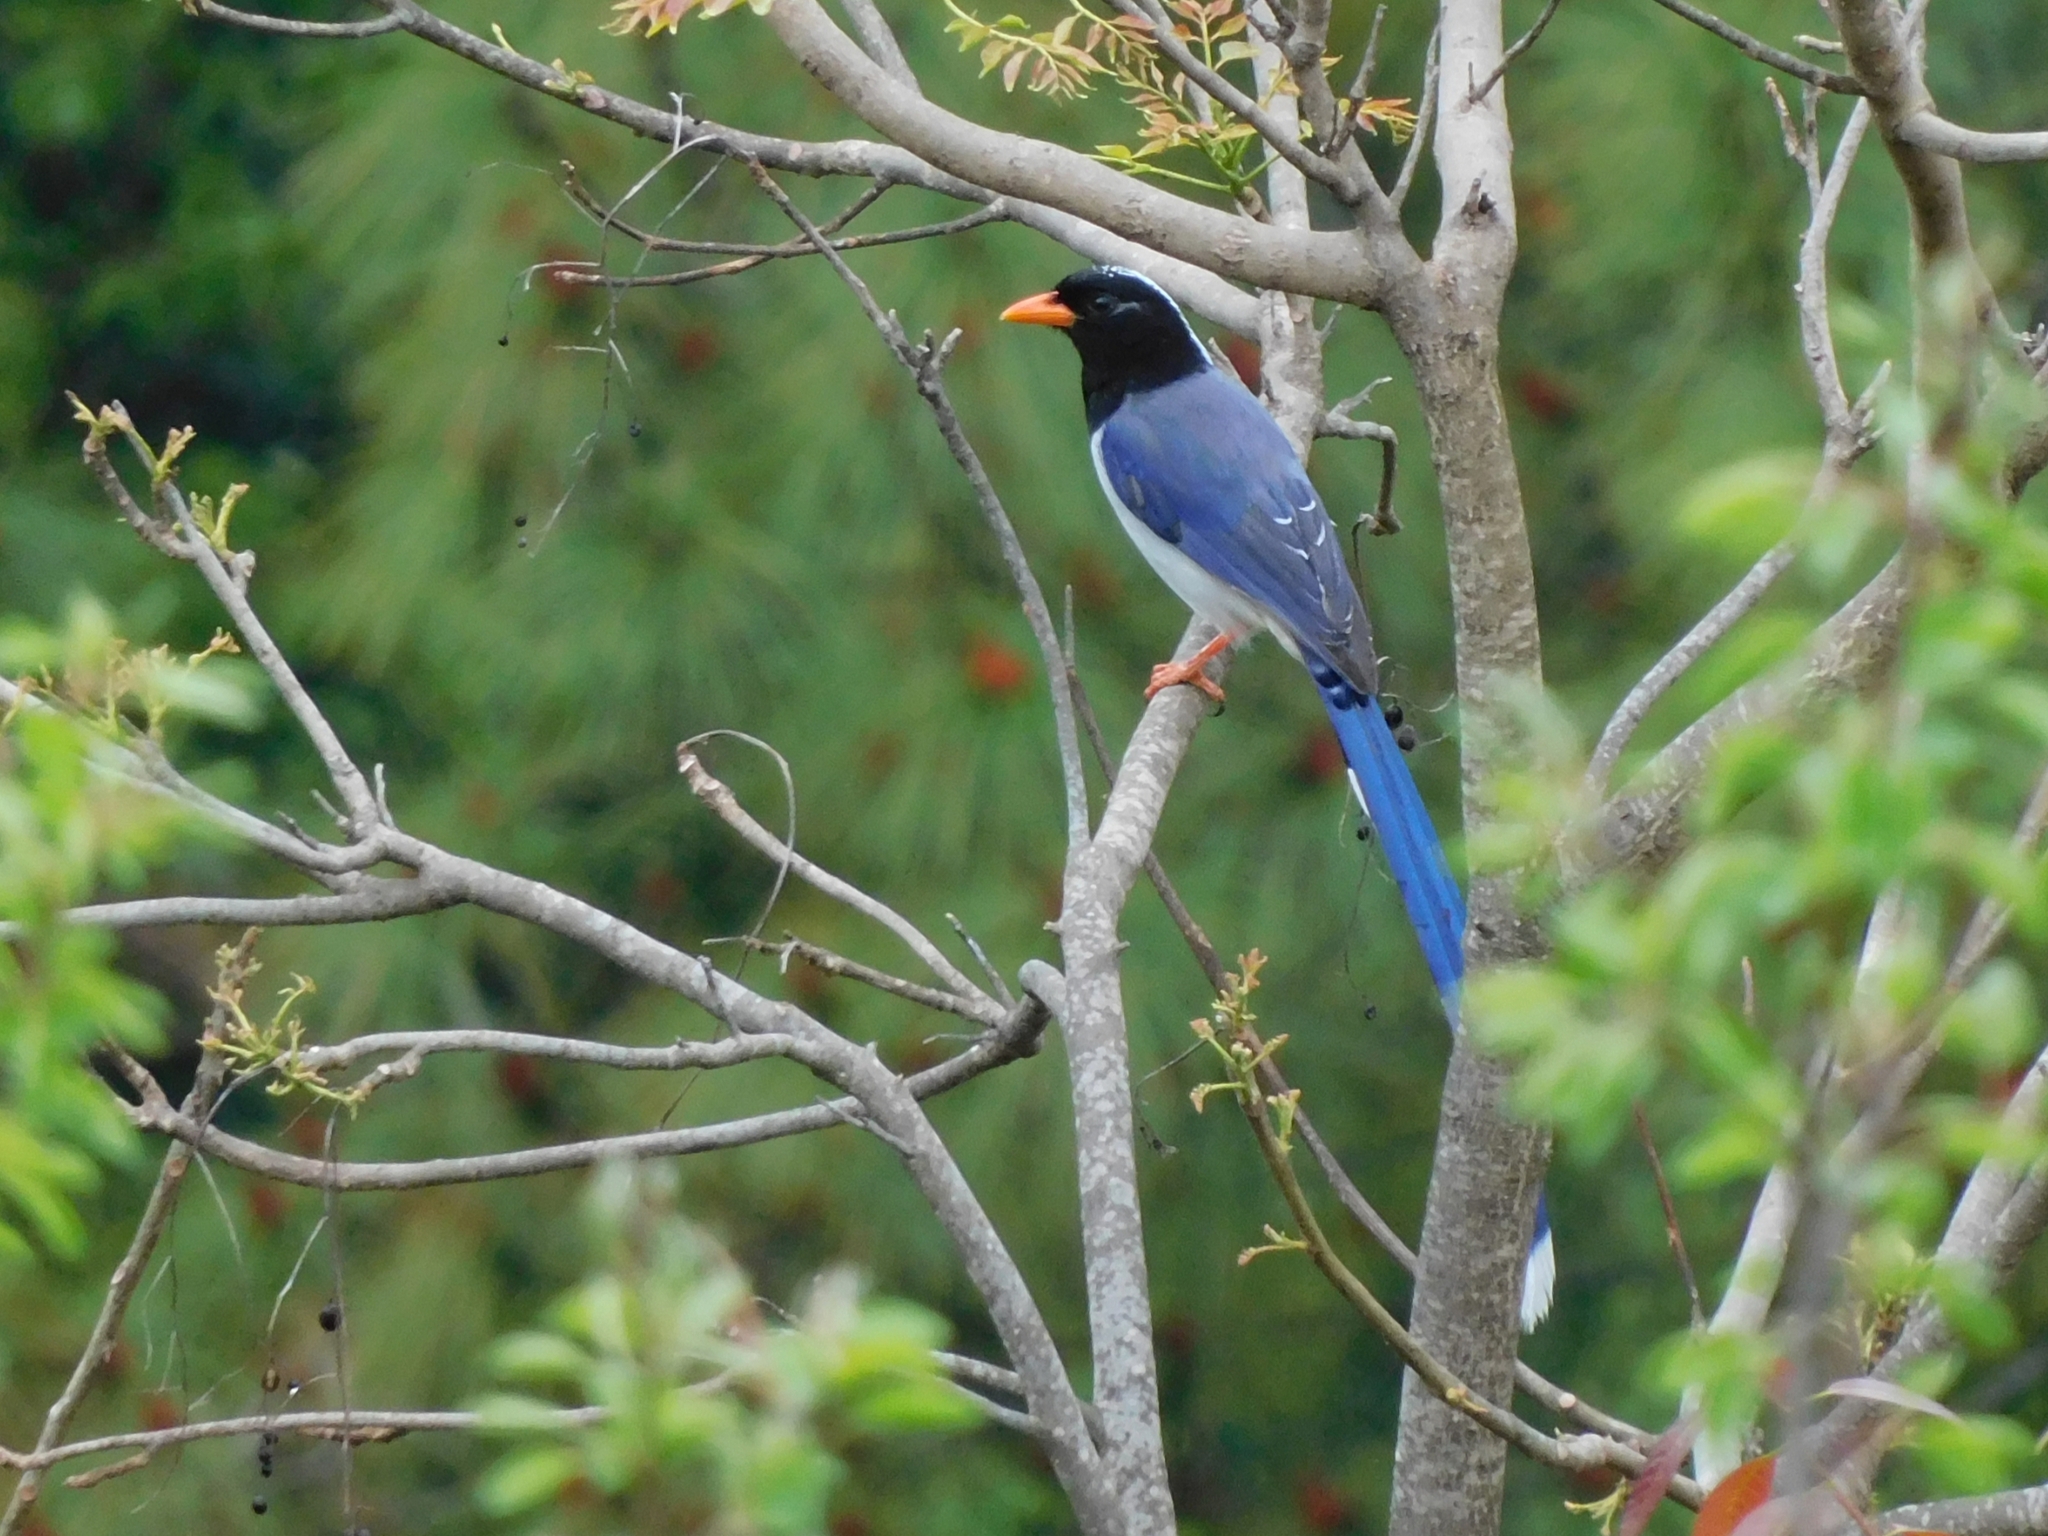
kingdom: Animalia
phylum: Chordata
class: Aves
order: Passeriformes
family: Corvidae
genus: Urocissa
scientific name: Urocissa erythroryncha
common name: Red-billed blue magpie
